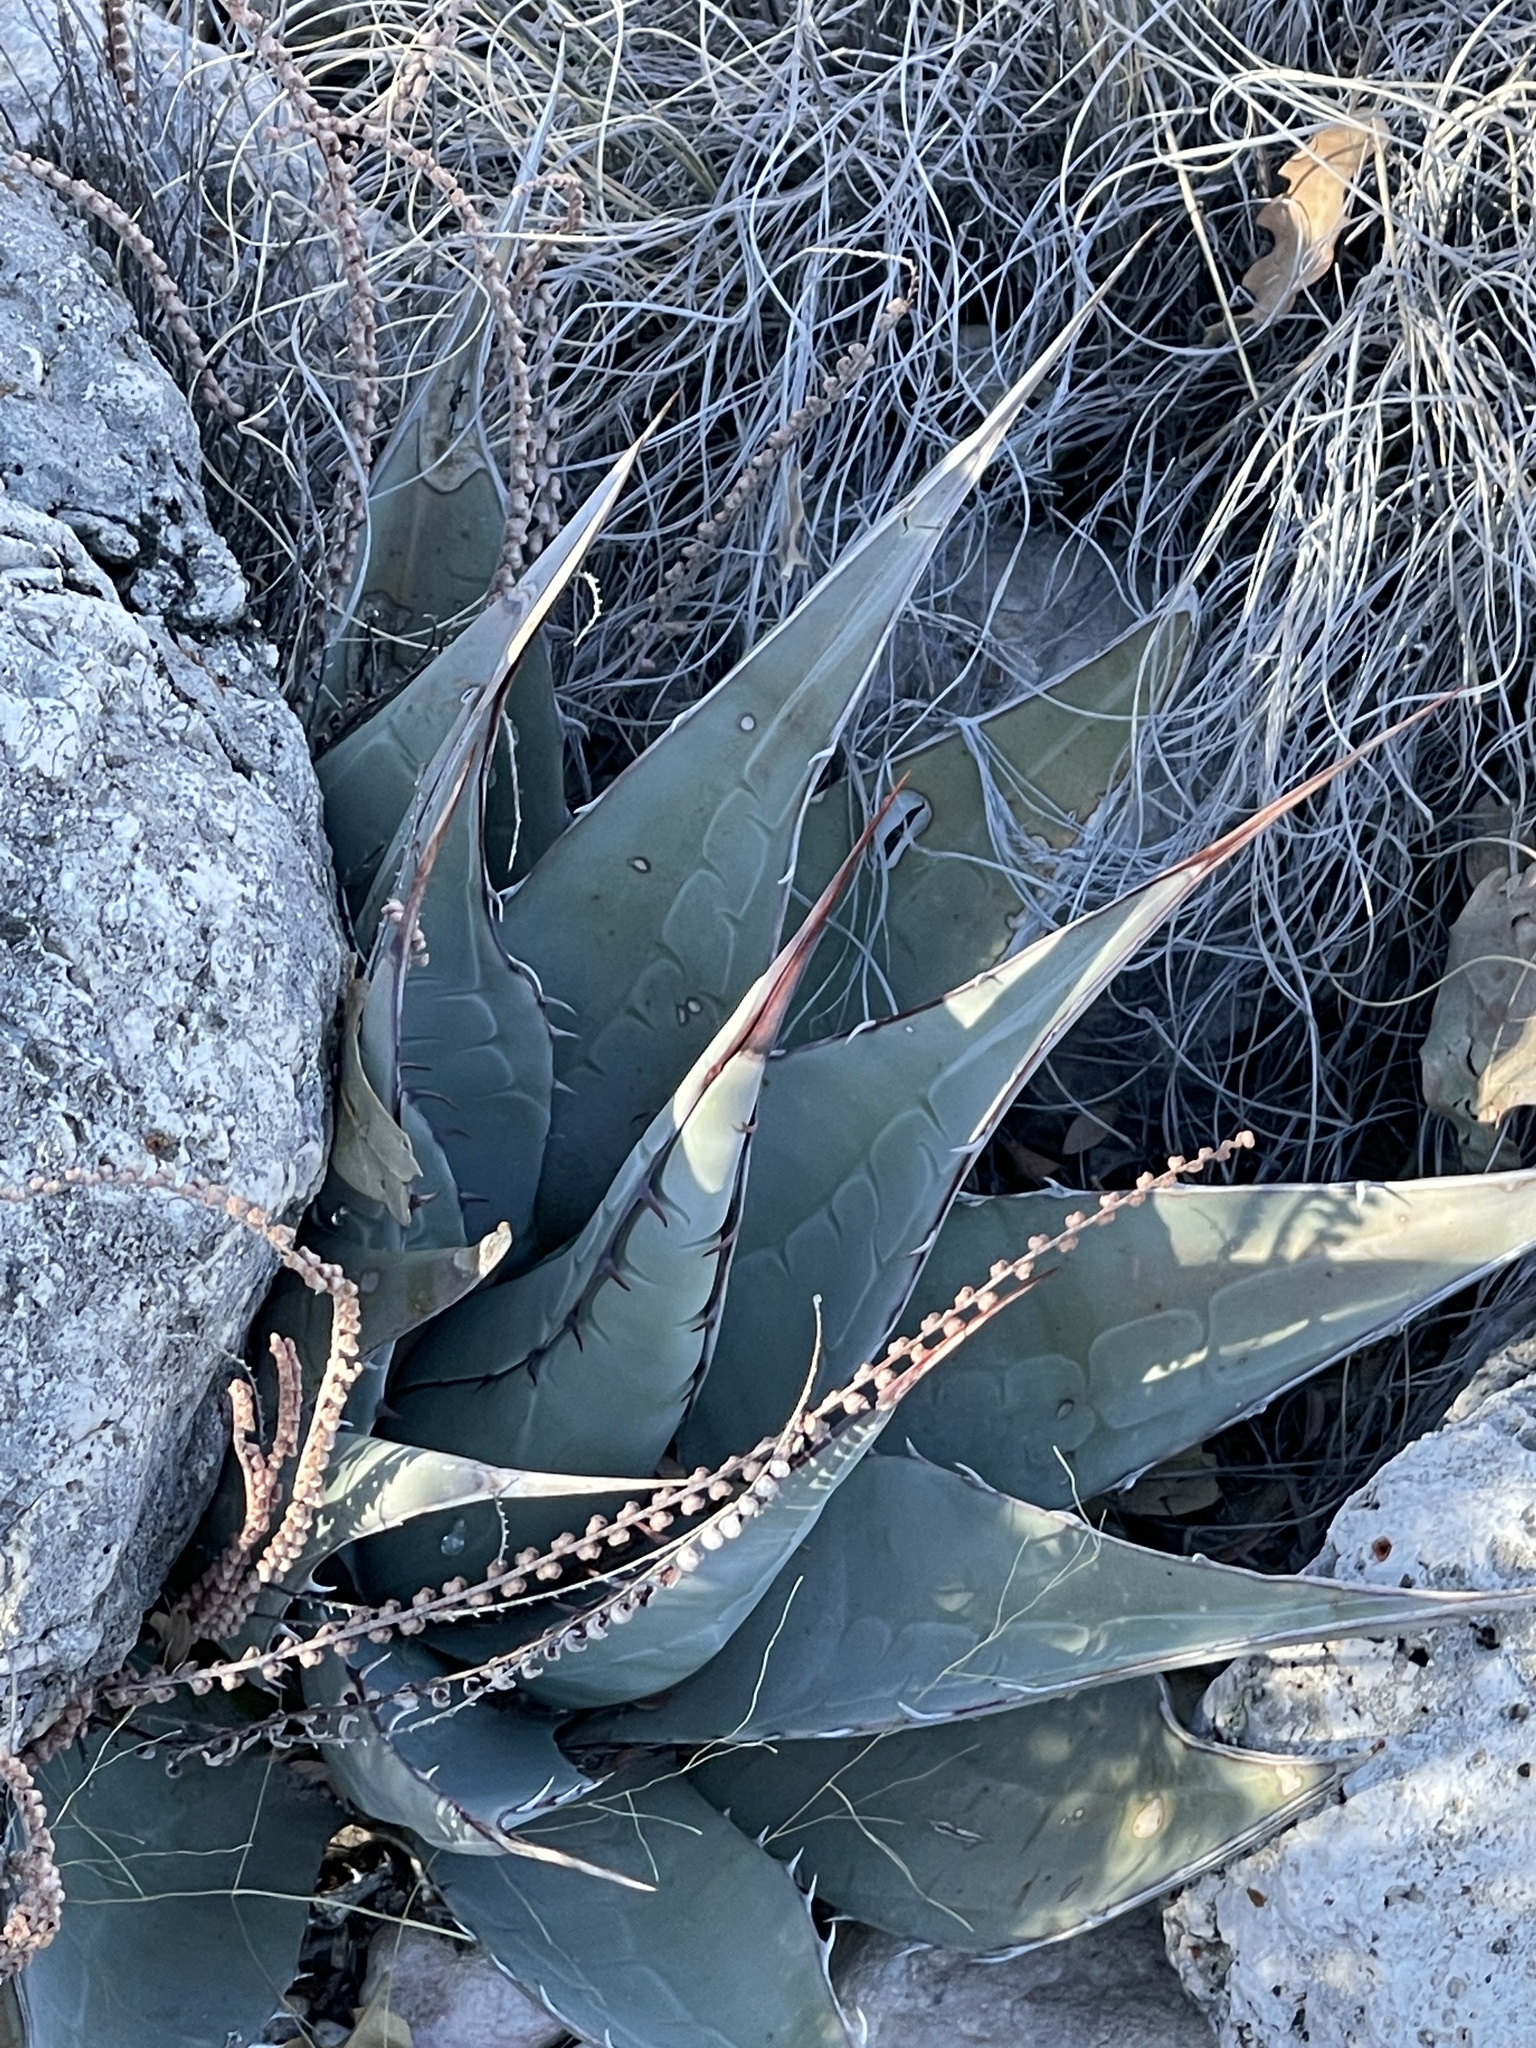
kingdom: Plantae
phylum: Tracheophyta
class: Liliopsida
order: Asparagales
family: Asparagaceae
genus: Agave
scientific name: Agave parryi
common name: Parry's agave
